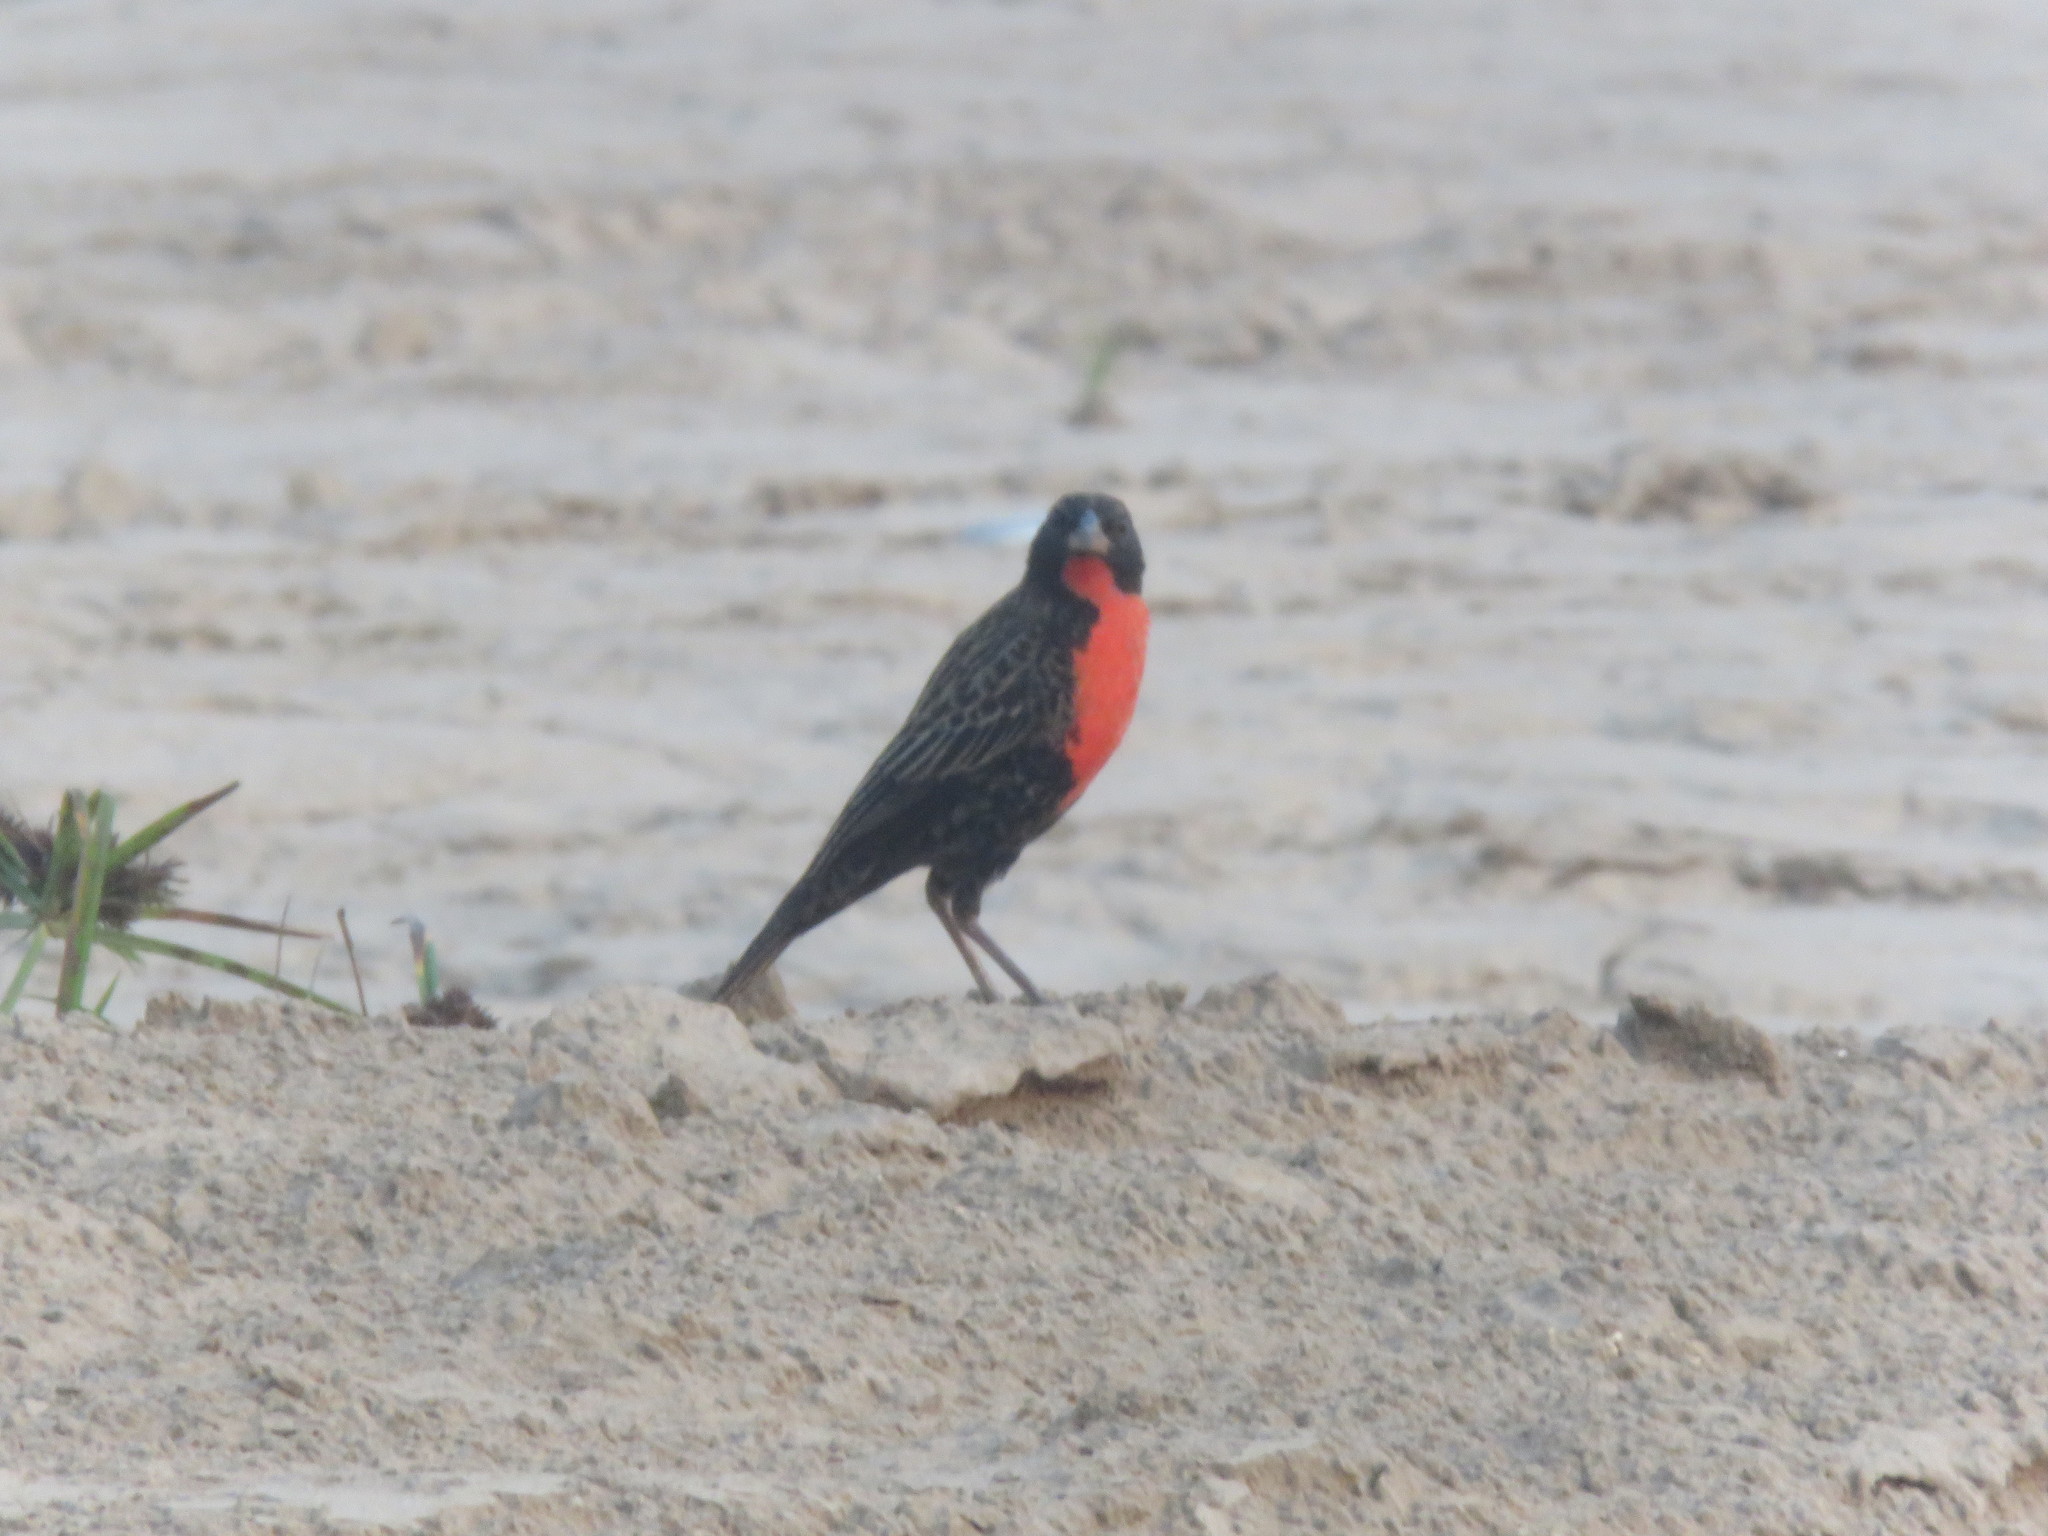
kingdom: Animalia
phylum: Chordata
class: Aves
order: Passeriformes
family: Icteridae
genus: Sturnella
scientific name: Sturnella superciliaris
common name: White-browed blackbird
